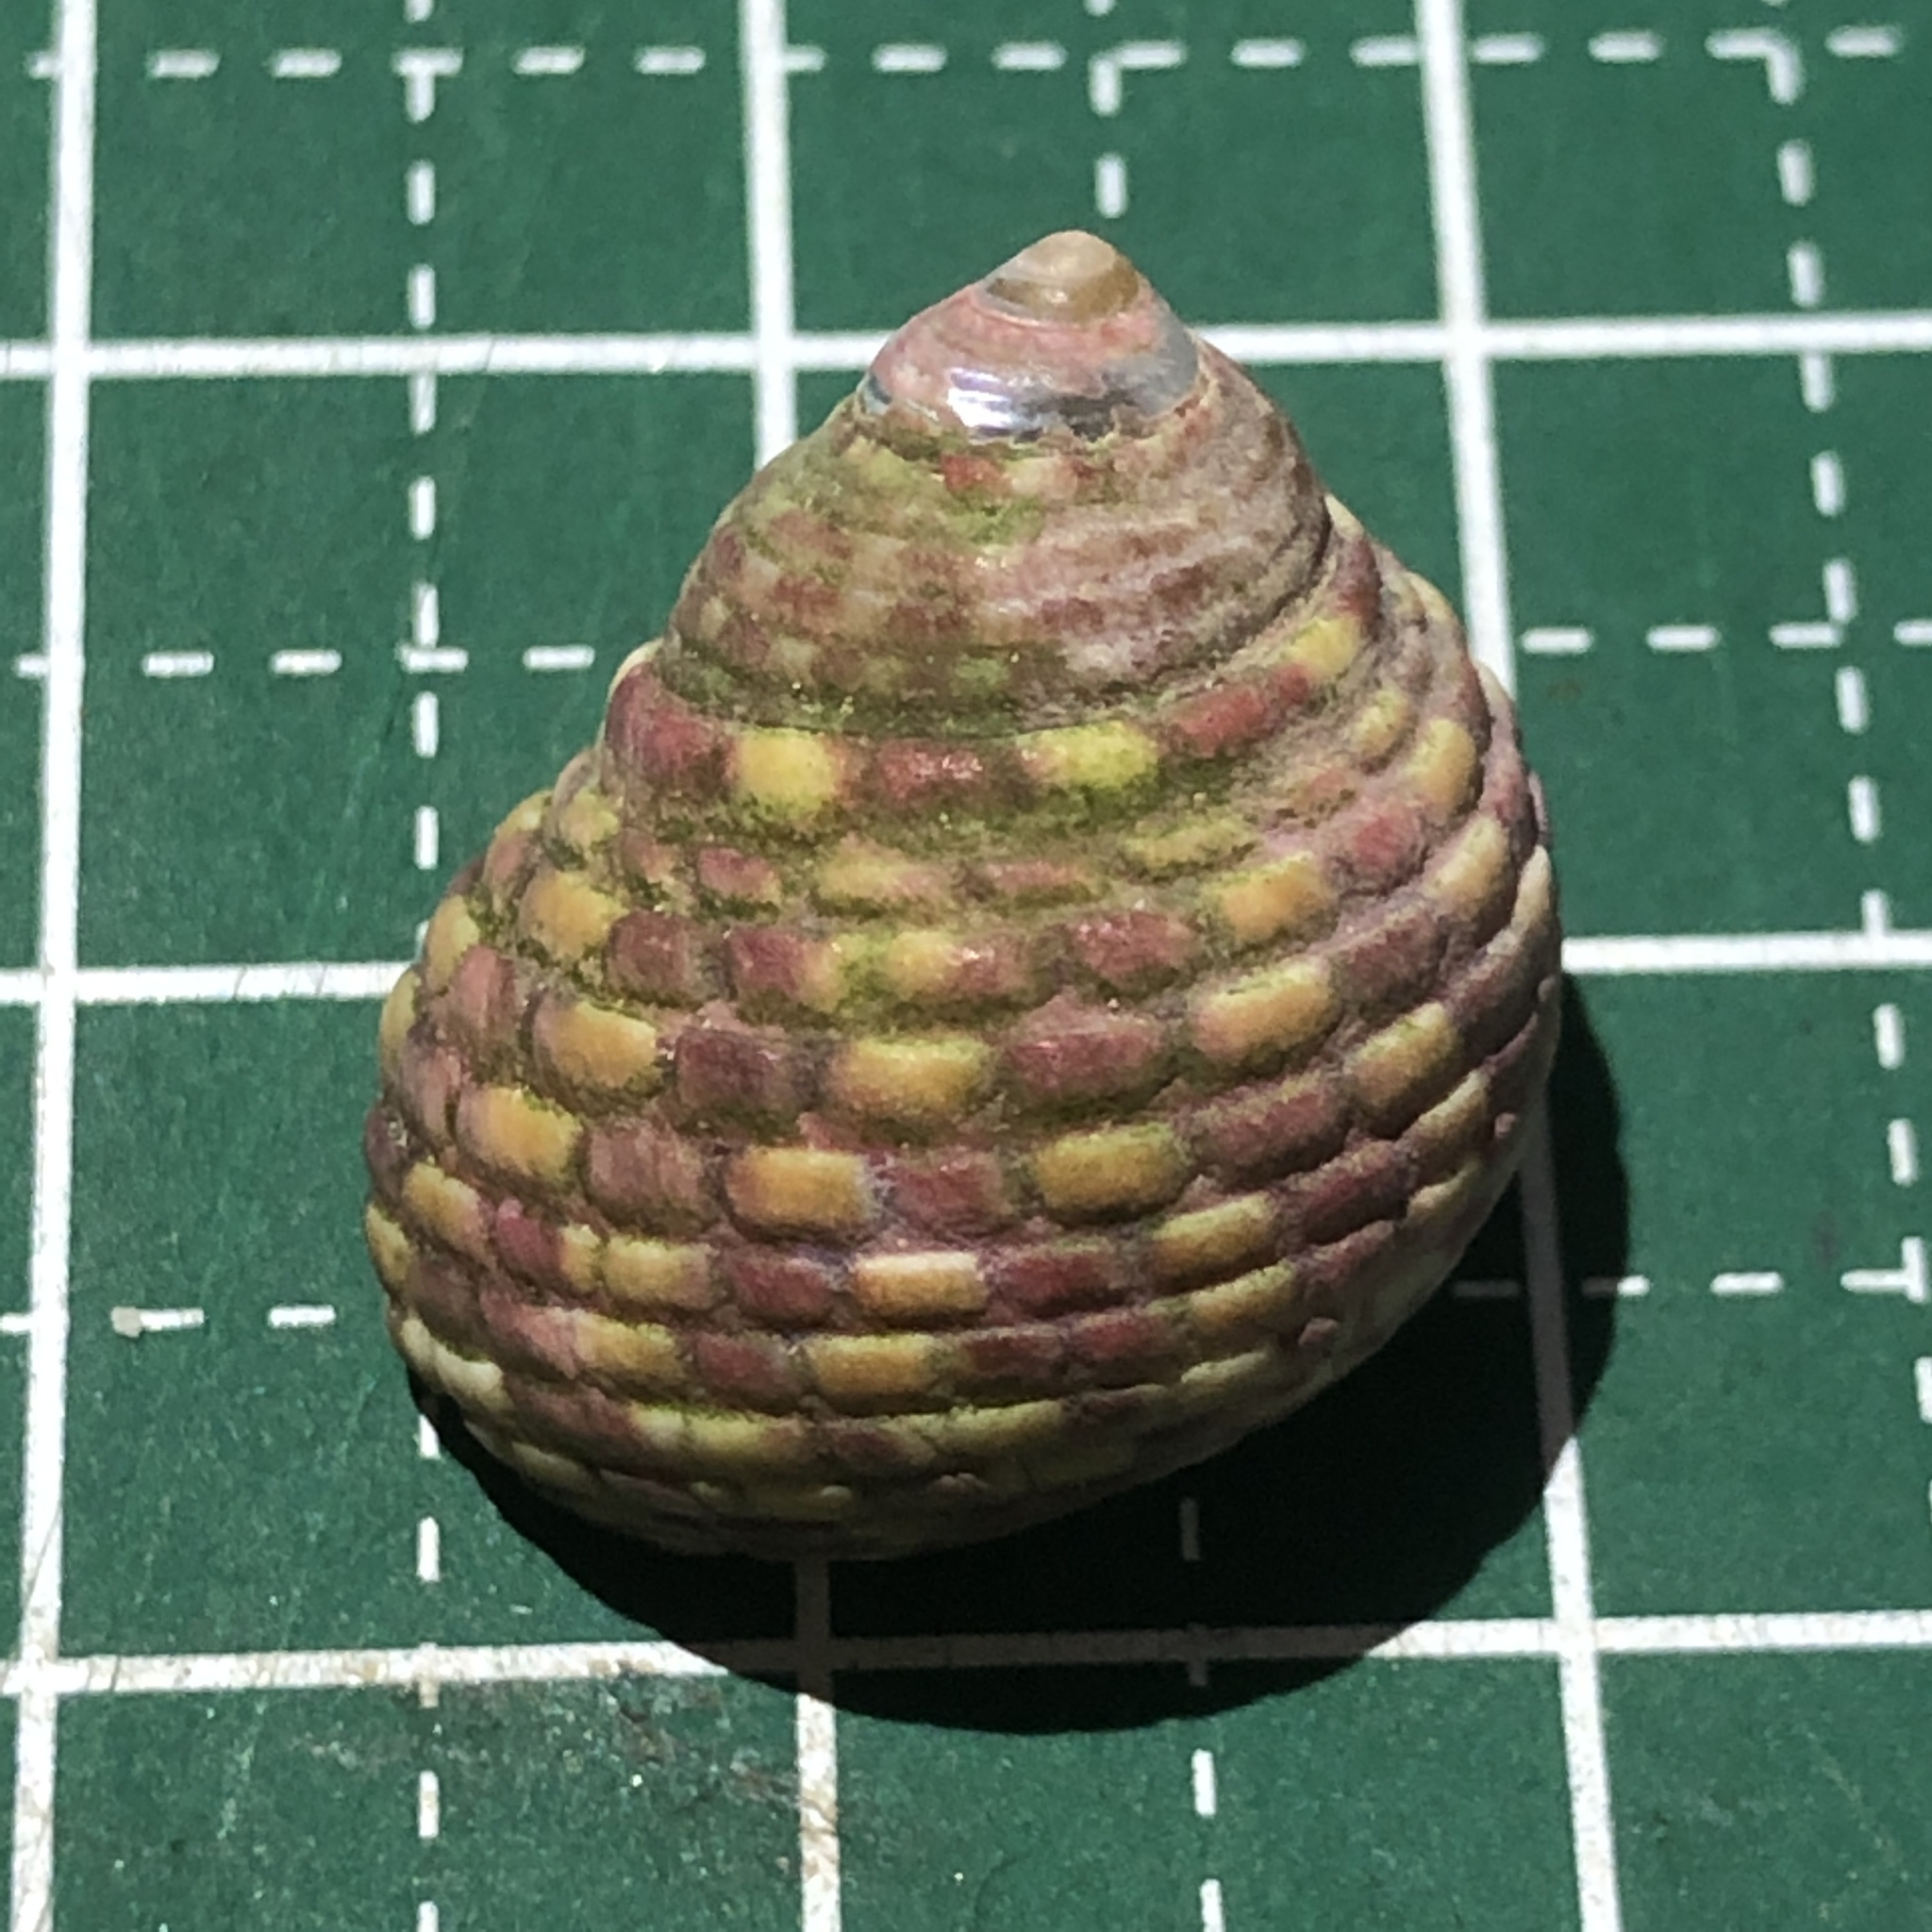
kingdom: Animalia
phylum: Mollusca
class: Gastropoda
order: Trochida
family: Trochidae
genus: Monodonta
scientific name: Monodonta confusa
